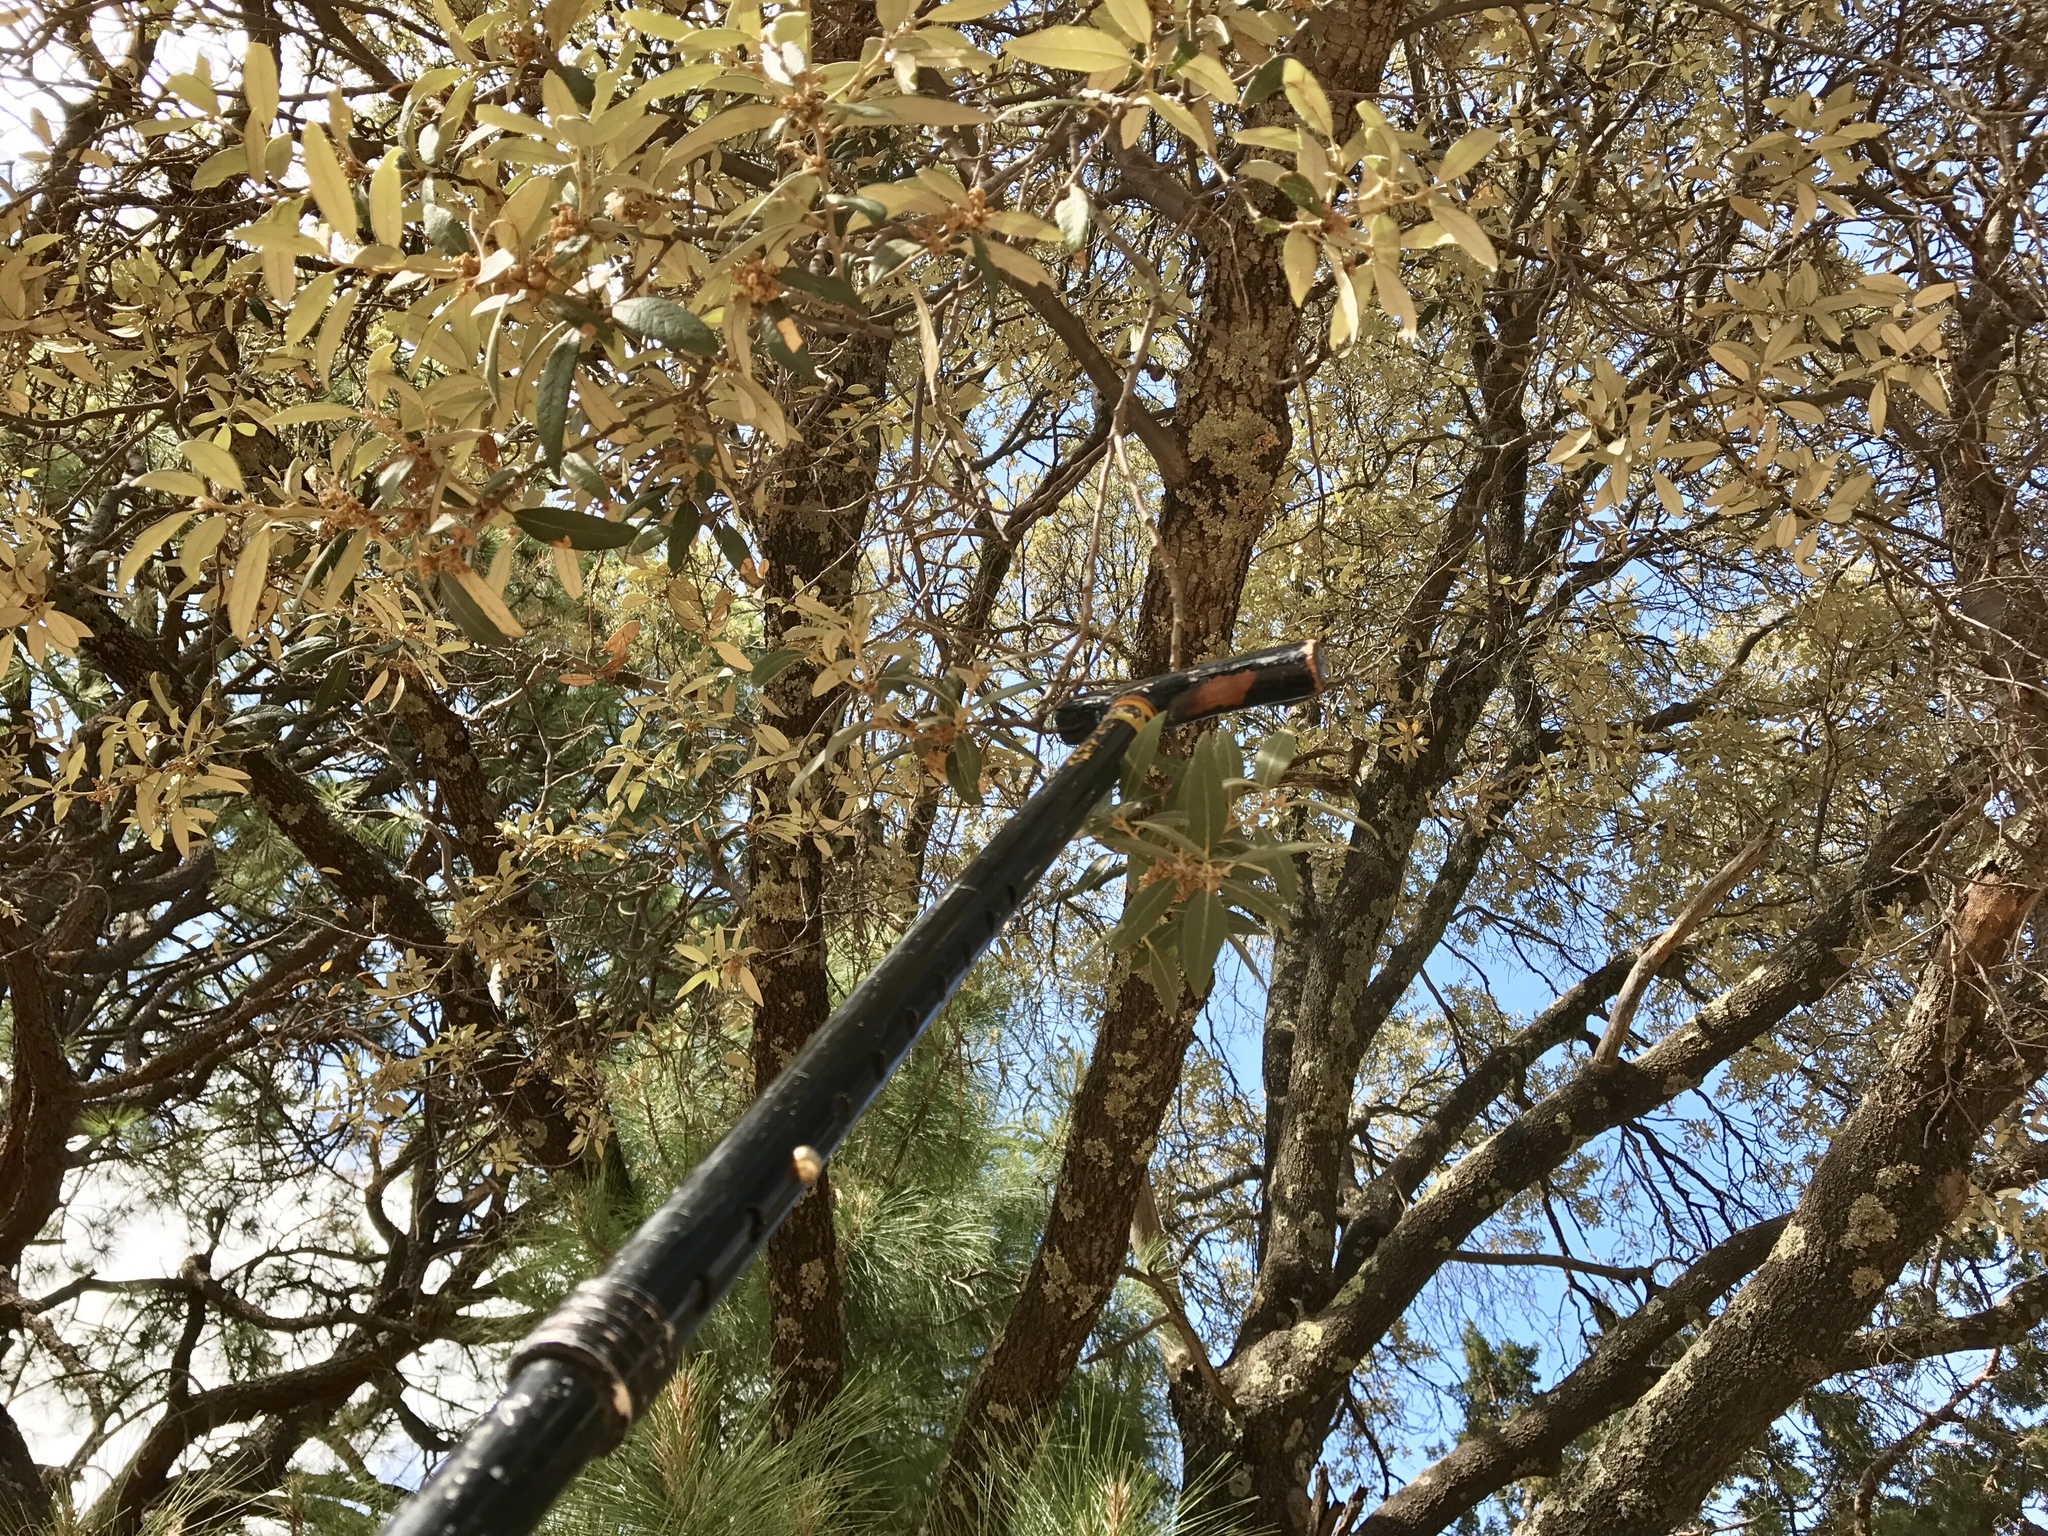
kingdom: Plantae
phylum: Tracheophyta
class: Magnoliopsida
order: Fagales
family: Fagaceae
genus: Quercus
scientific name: Quercus hypoleucoides
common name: Silverleaf oak
